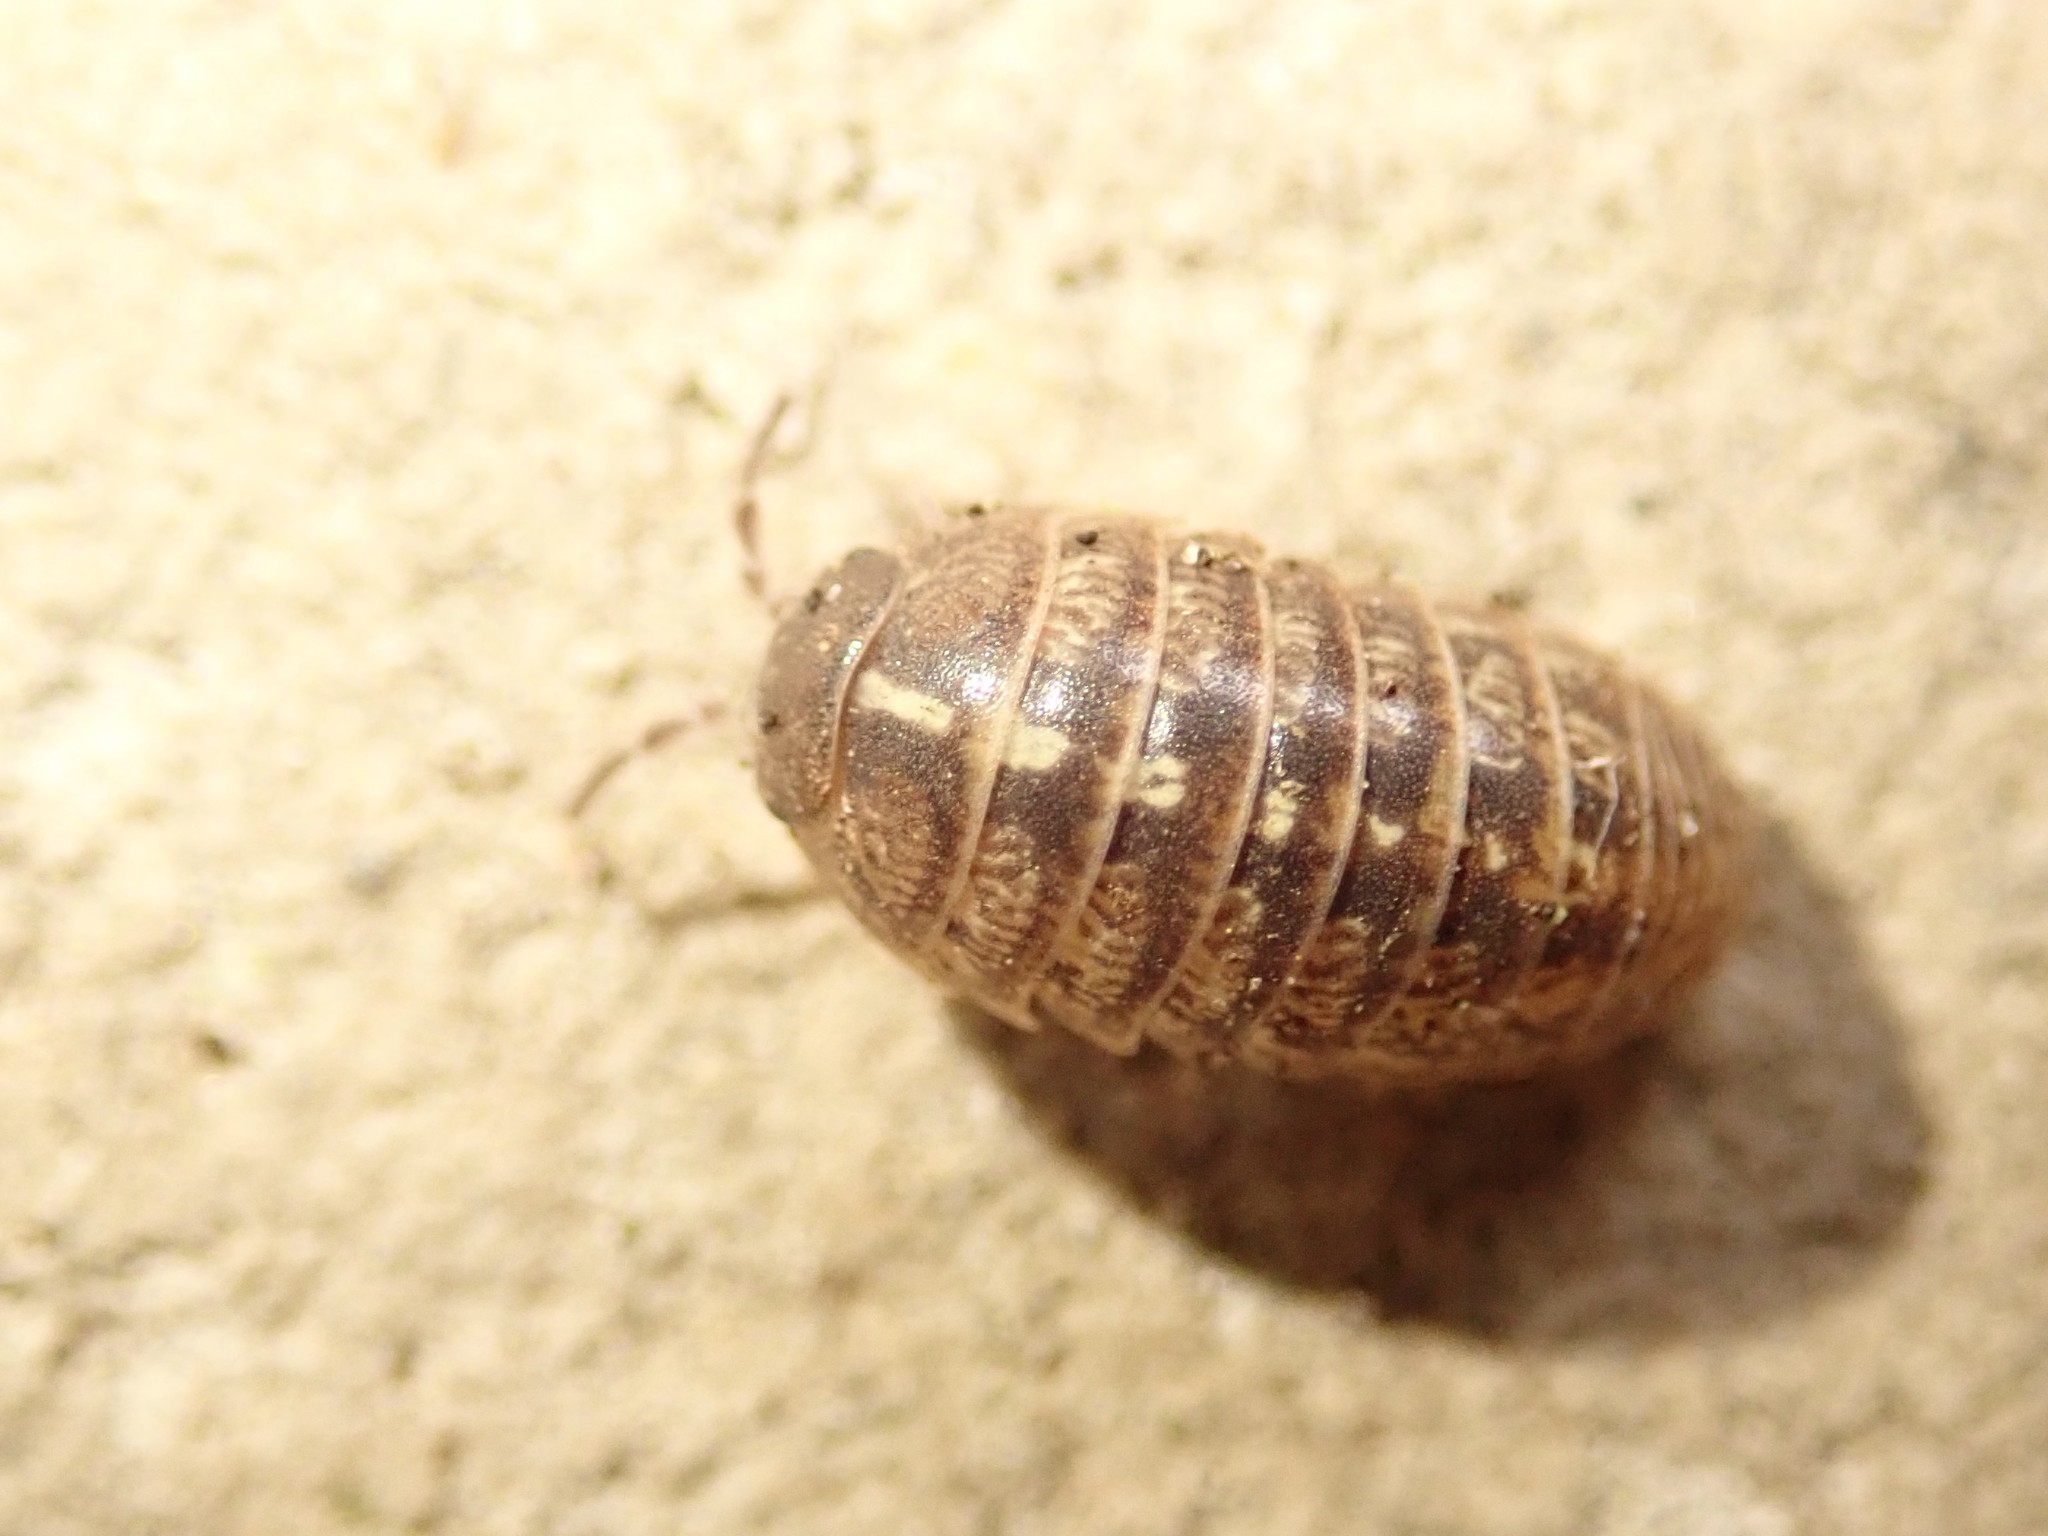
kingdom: Animalia
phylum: Arthropoda
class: Malacostraca
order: Isopoda
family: Armadillidiidae
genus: Armadillidium
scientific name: Armadillidium vulgare
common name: Common pill woodlouse
